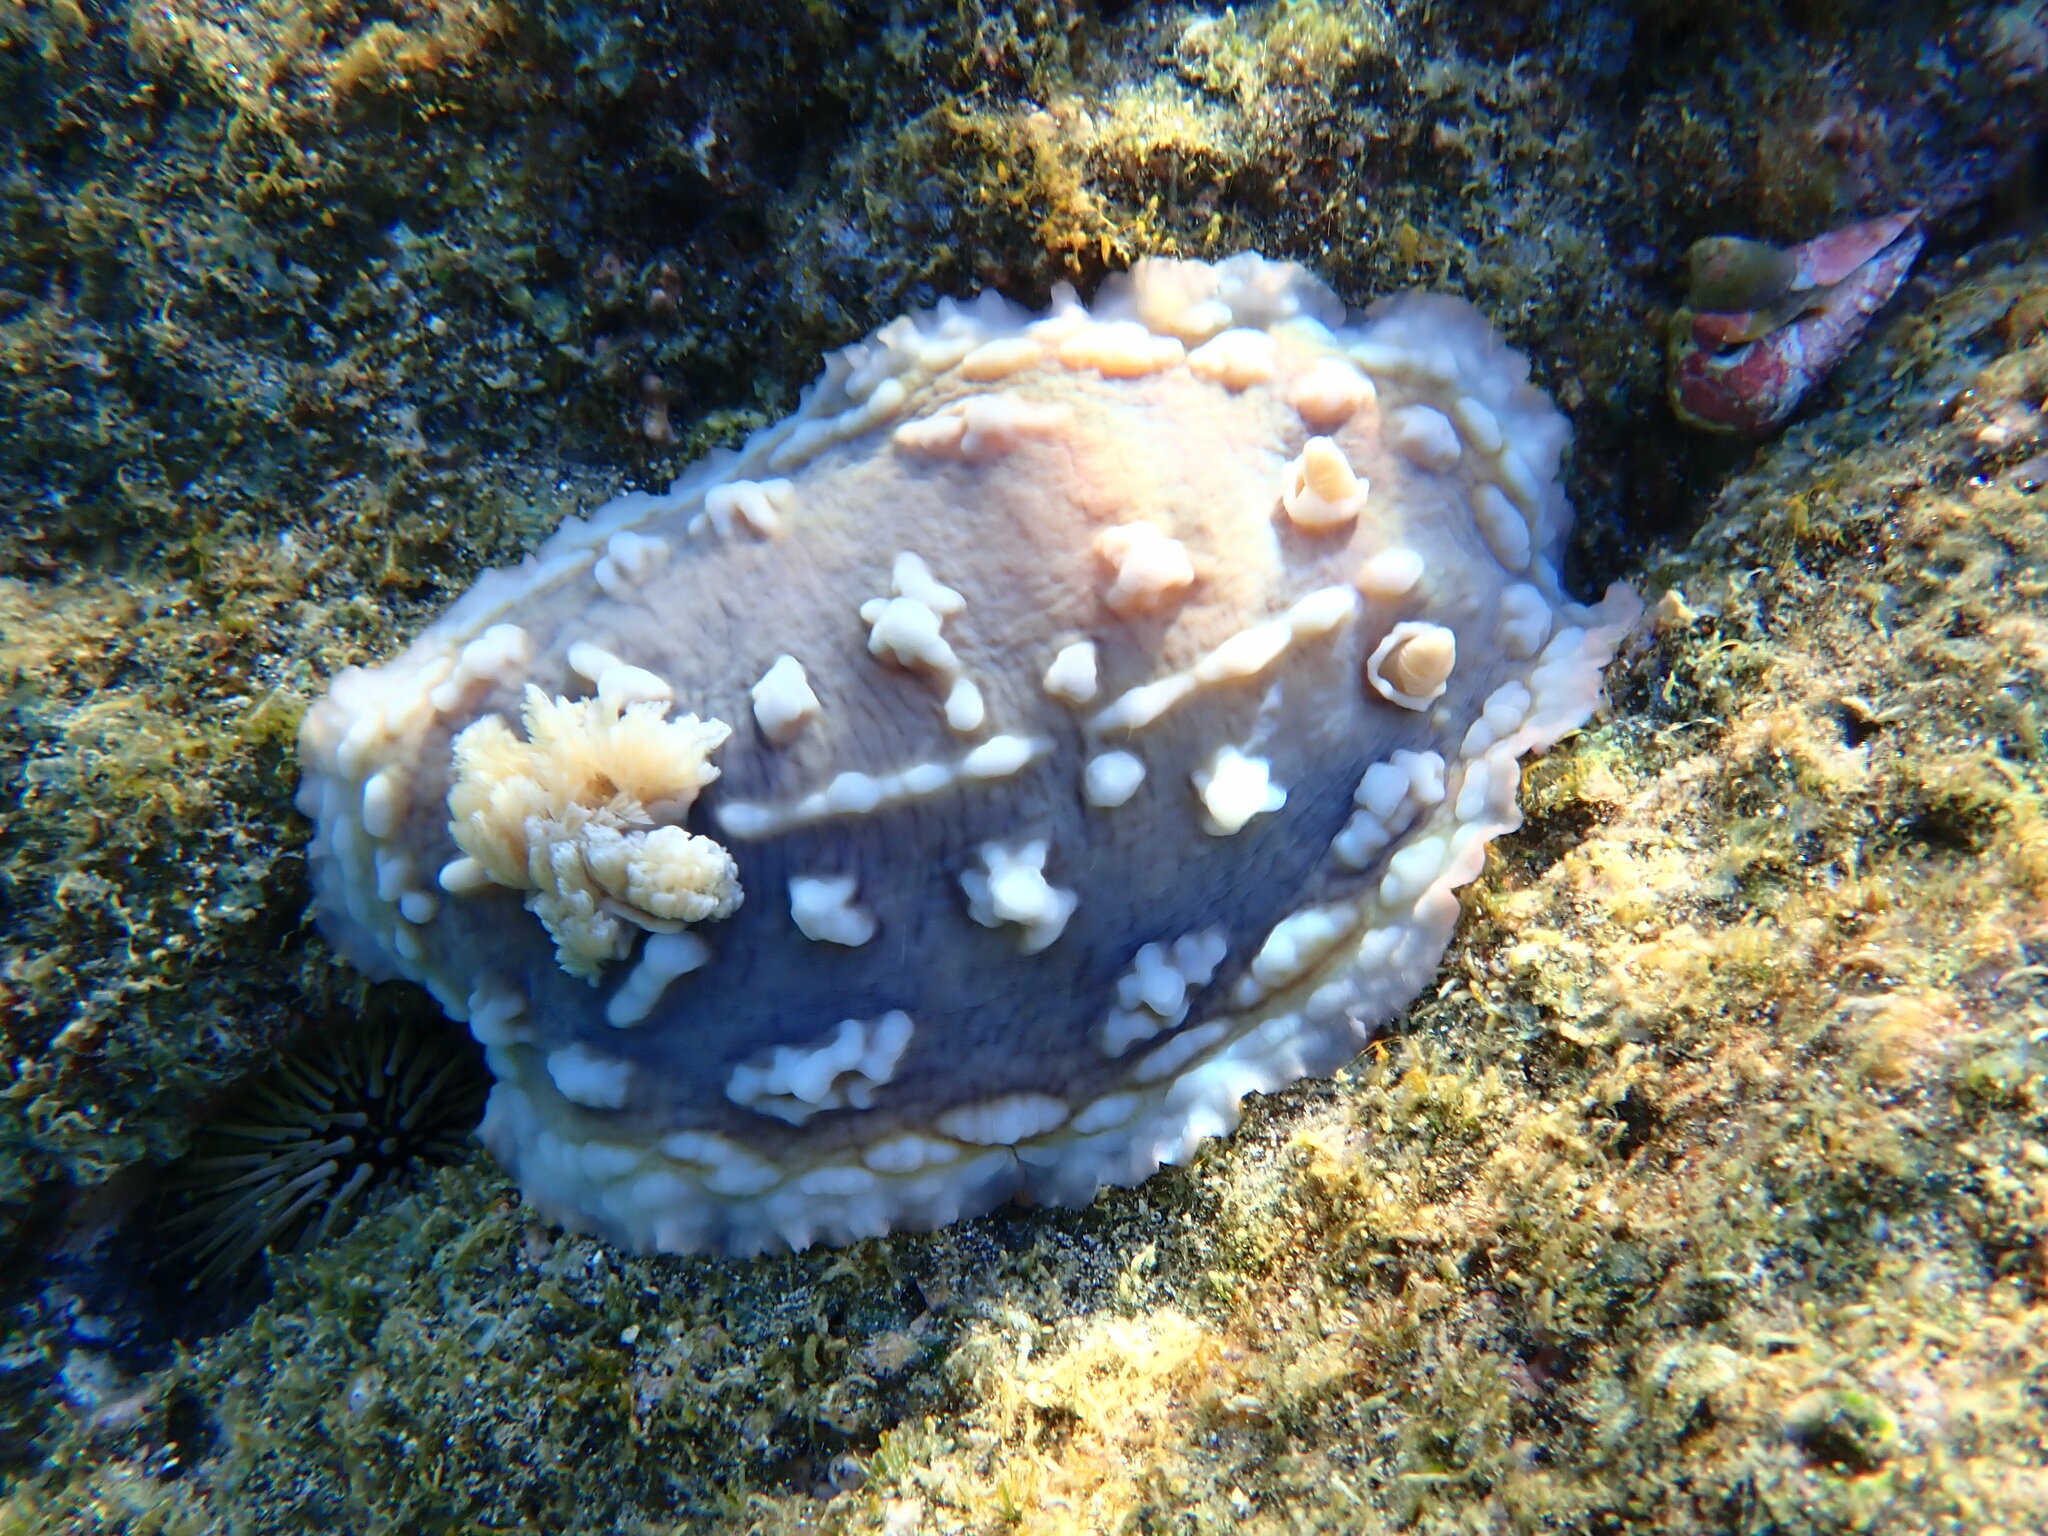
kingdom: Animalia
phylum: Mollusca
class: Gastropoda
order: Nudibranchia
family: Discodorididae
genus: Asteronotus
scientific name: Asteronotus cespitosus
